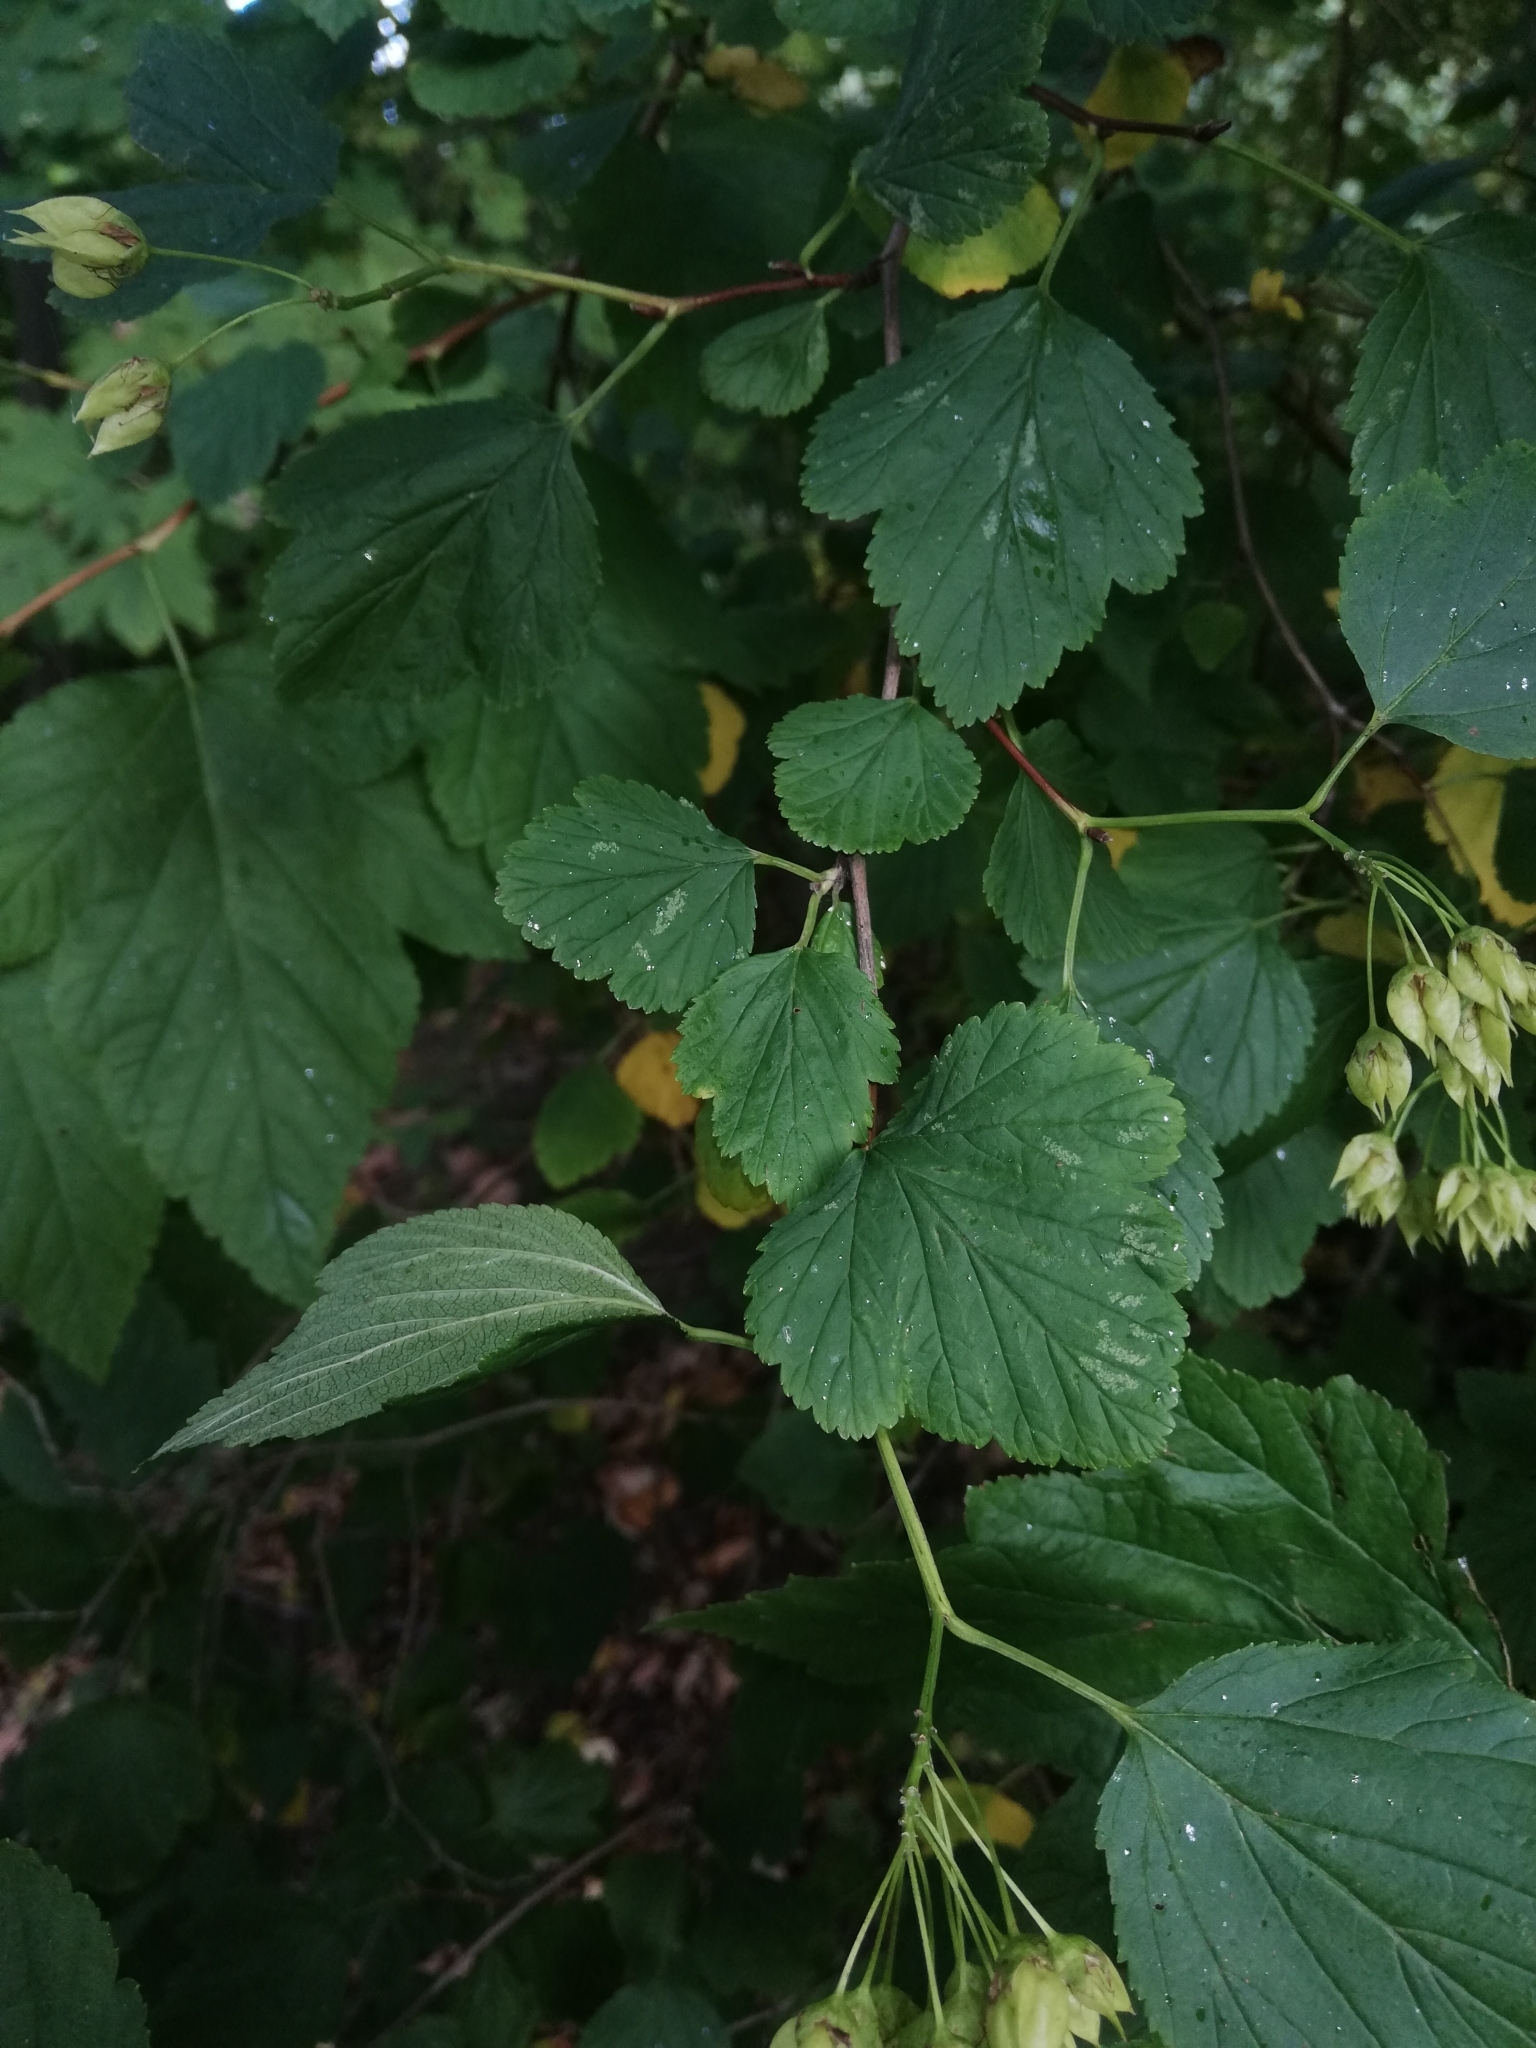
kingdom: Plantae
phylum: Tracheophyta
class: Magnoliopsida
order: Rosales
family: Rosaceae
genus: Physocarpus
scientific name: Physocarpus opulifolius
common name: Ninebark
